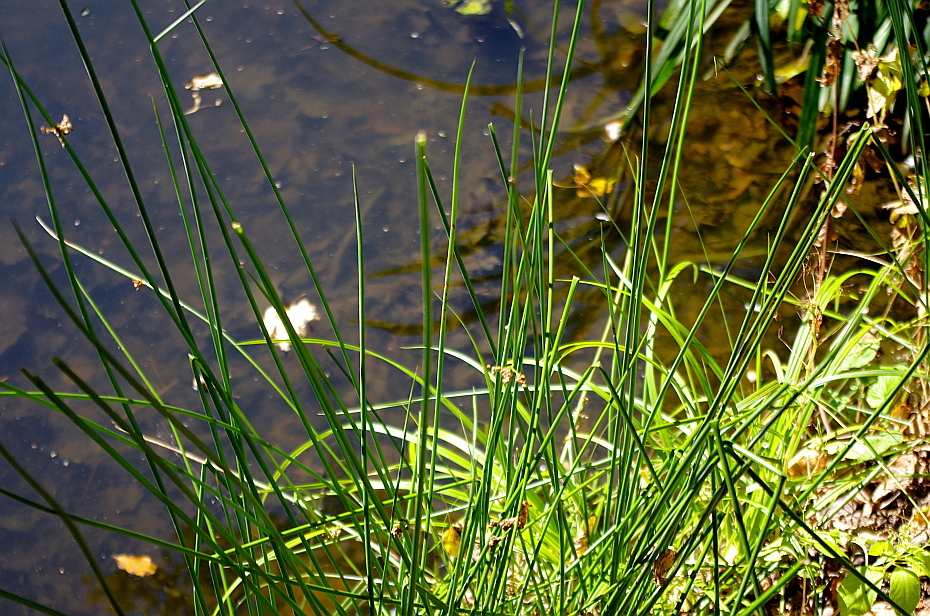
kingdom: Plantae
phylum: Tracheophyta
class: Liliopsida
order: Poales
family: Juncaceae
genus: Juncus
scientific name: Juncus effusus
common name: Soft rush
